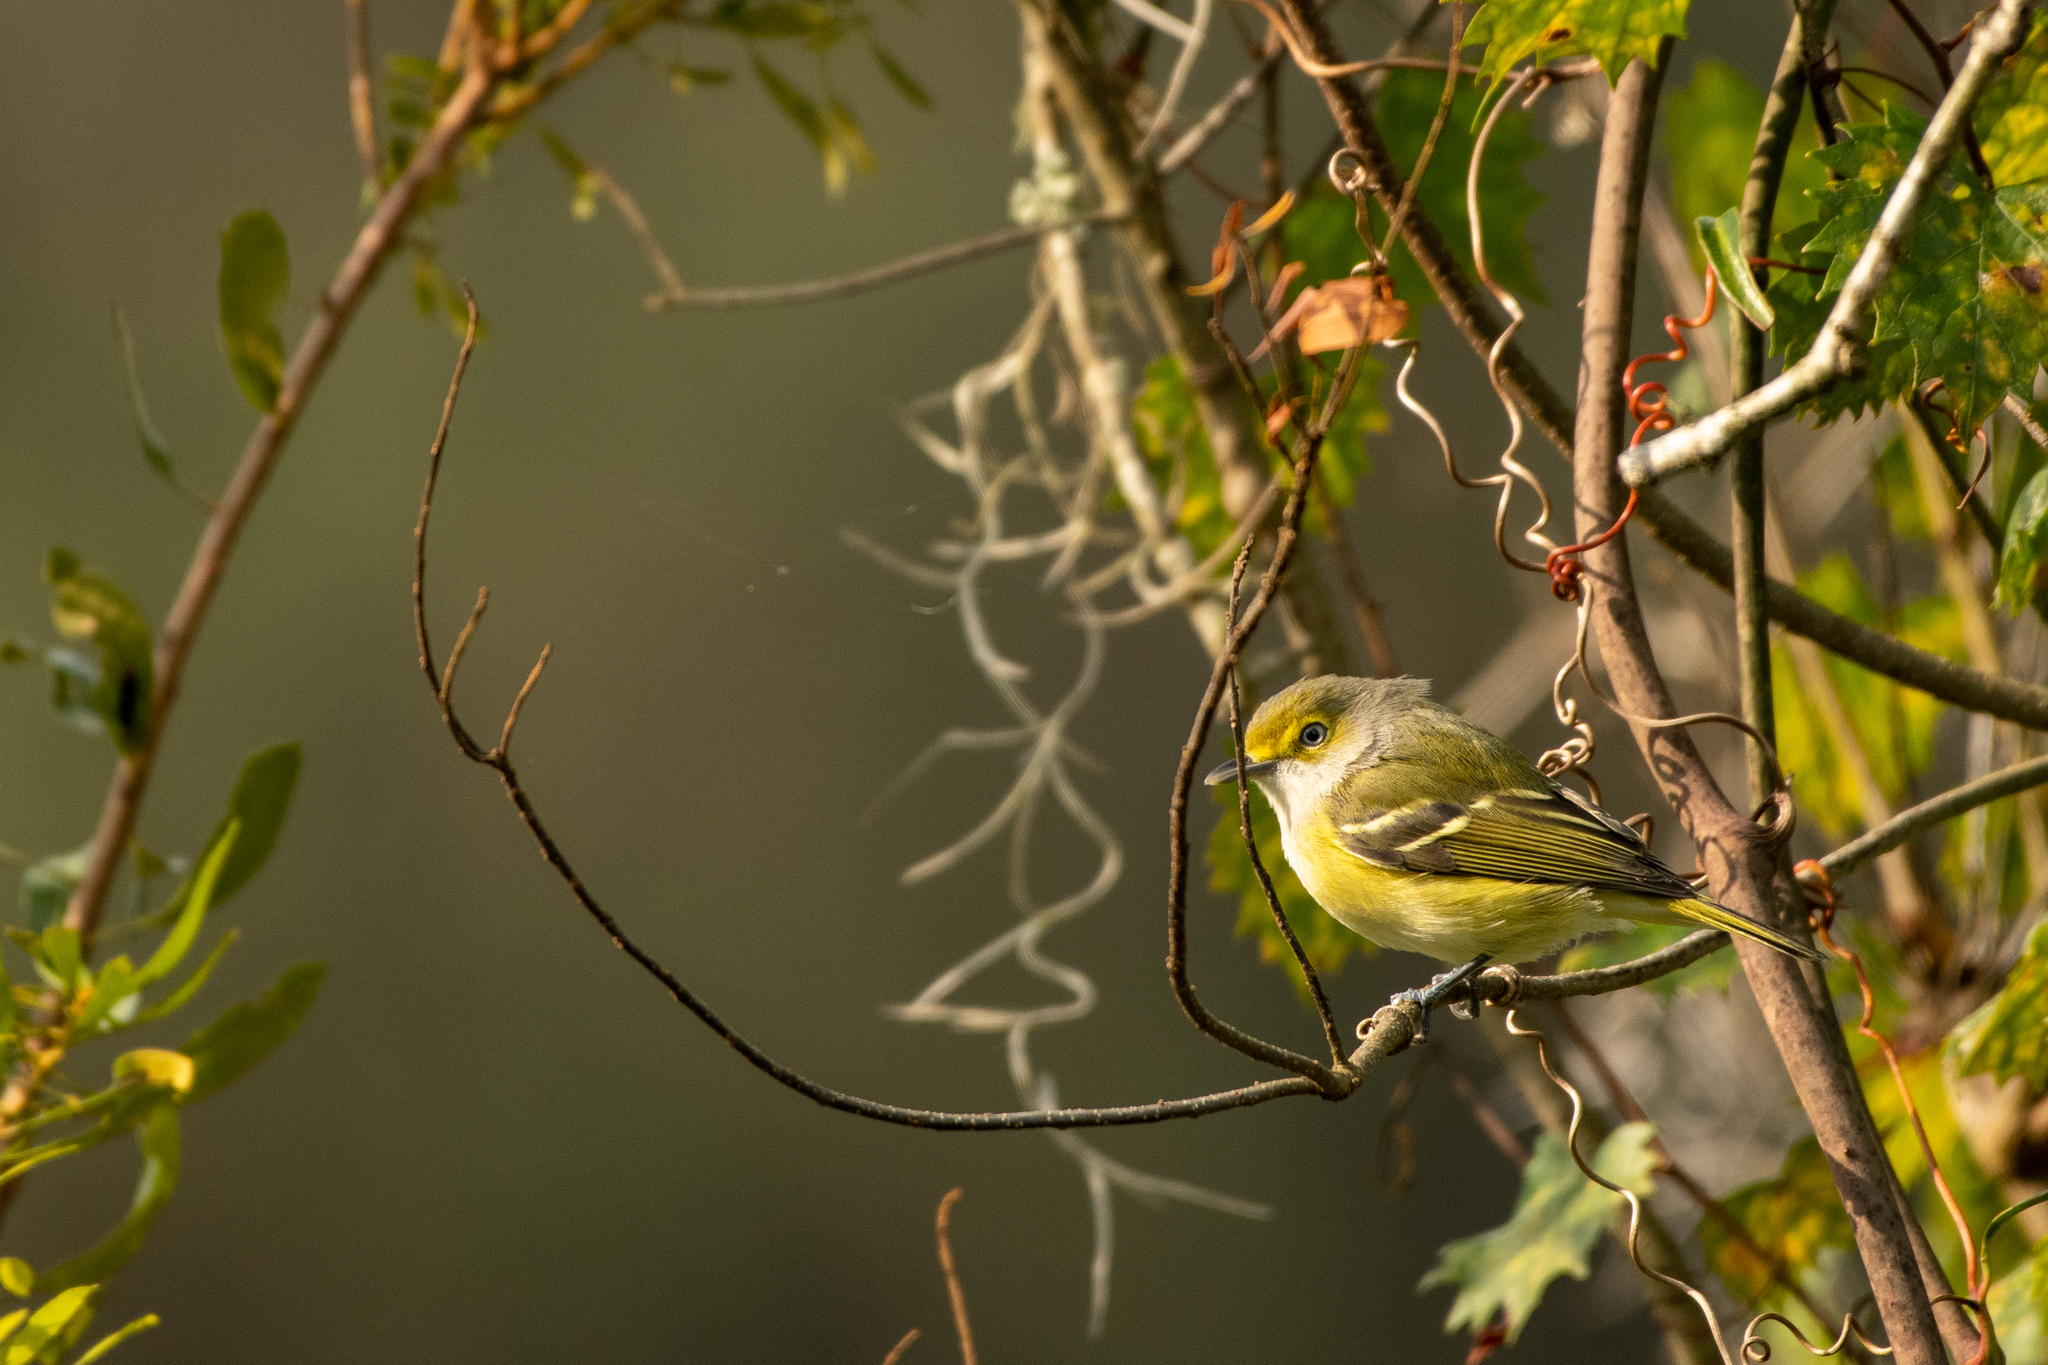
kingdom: Animalia
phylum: Chordata
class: Aves
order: Passeriformes
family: Vireonidae
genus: Vireo
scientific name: Vireo griseus
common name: White-eyed vireo
